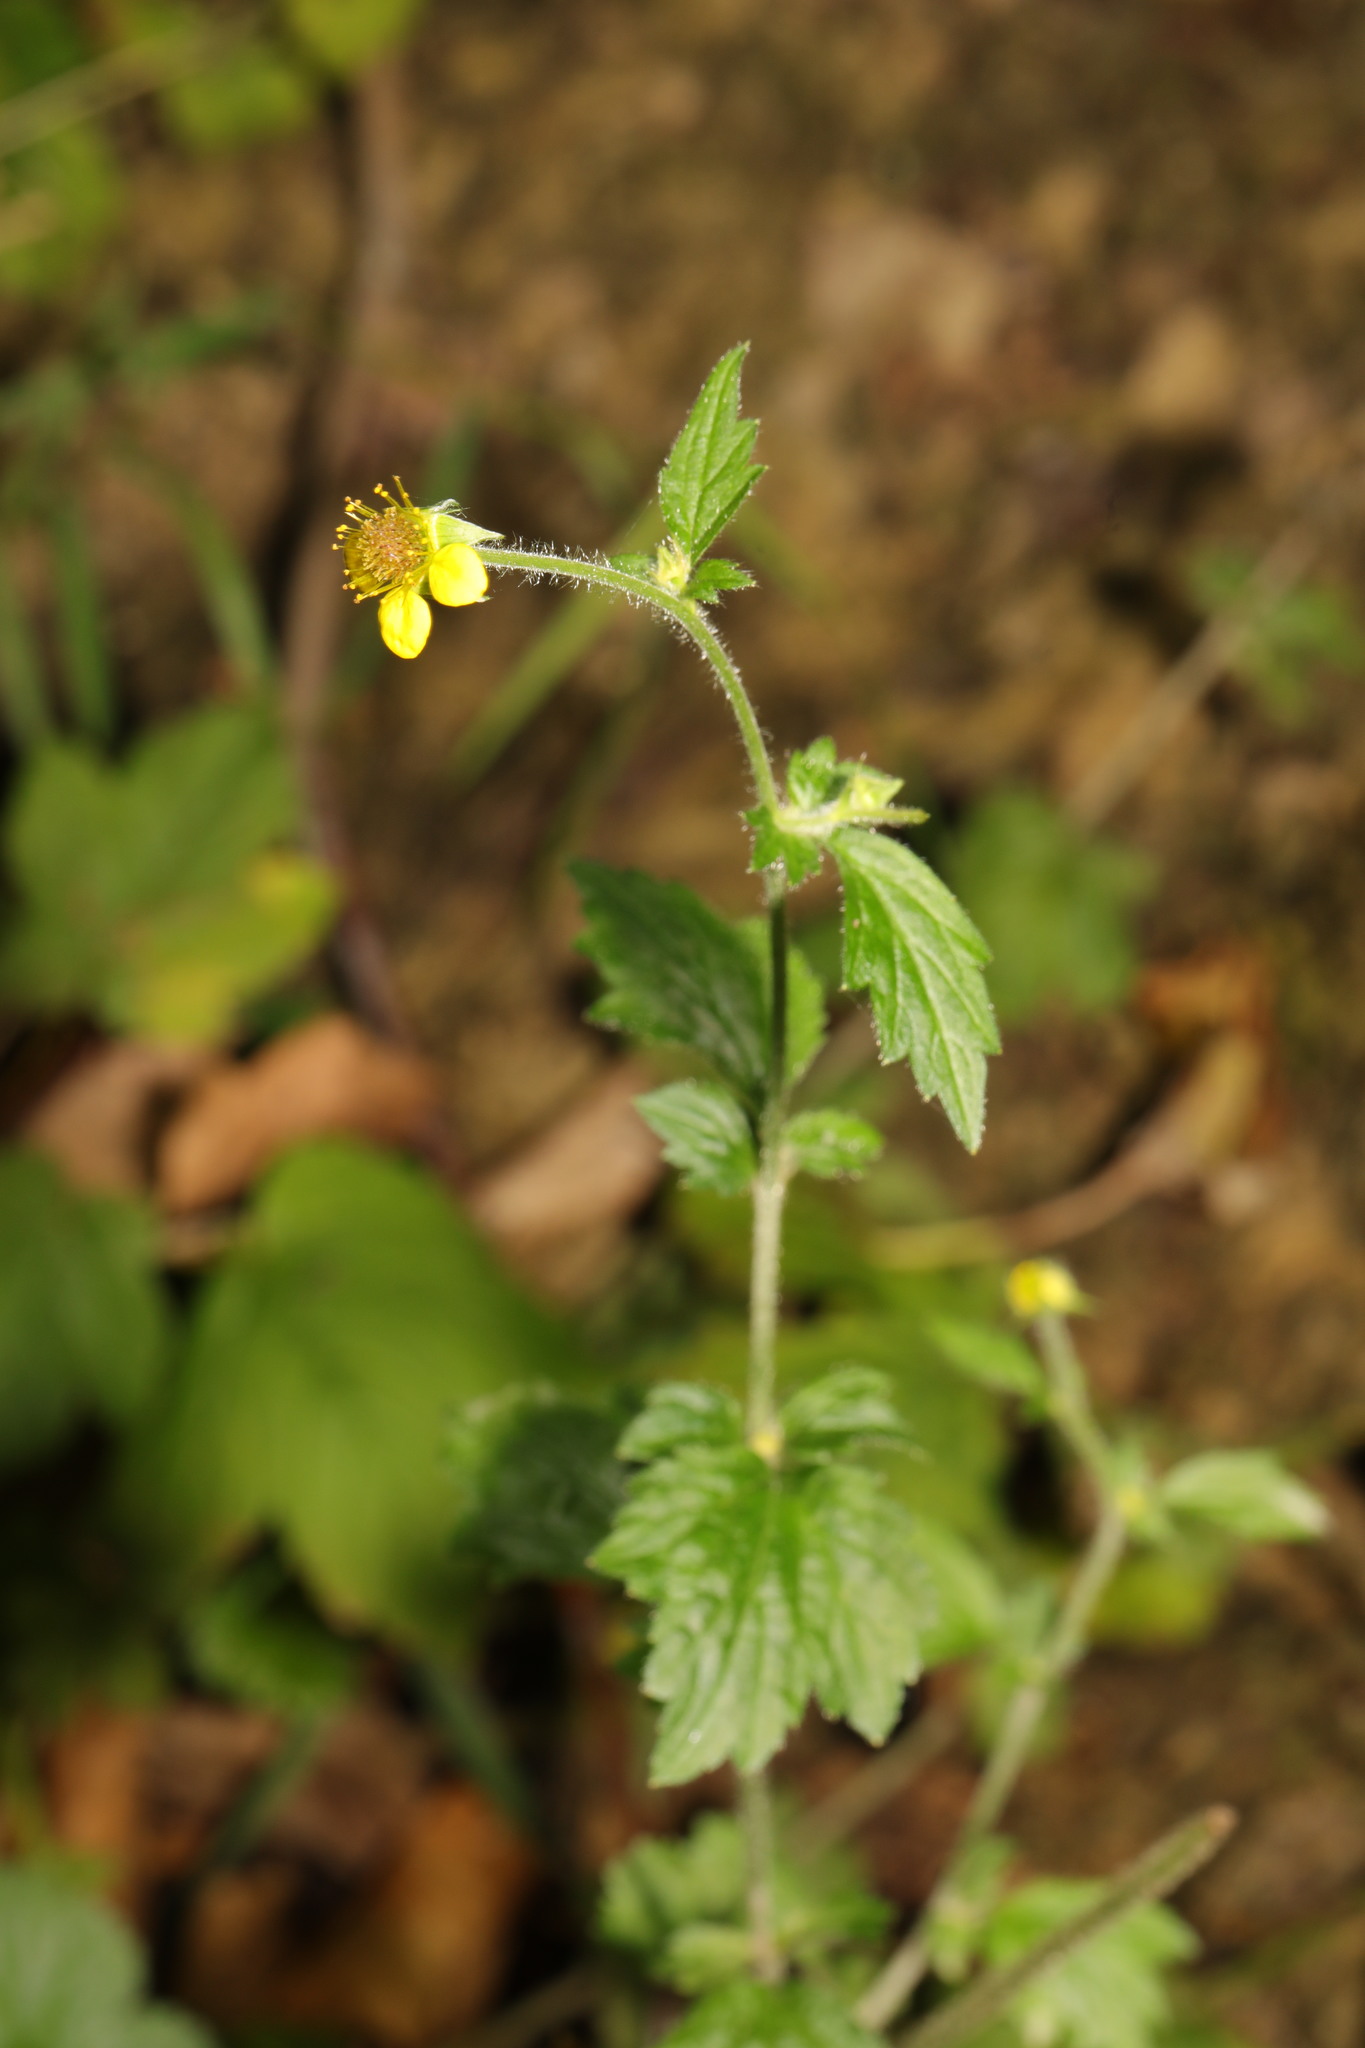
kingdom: Plantae
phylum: Tracheophyta
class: Magnoliopsida
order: Rosales
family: Rosaceae
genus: Geum
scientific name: Geum urbanum
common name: Wood avens
